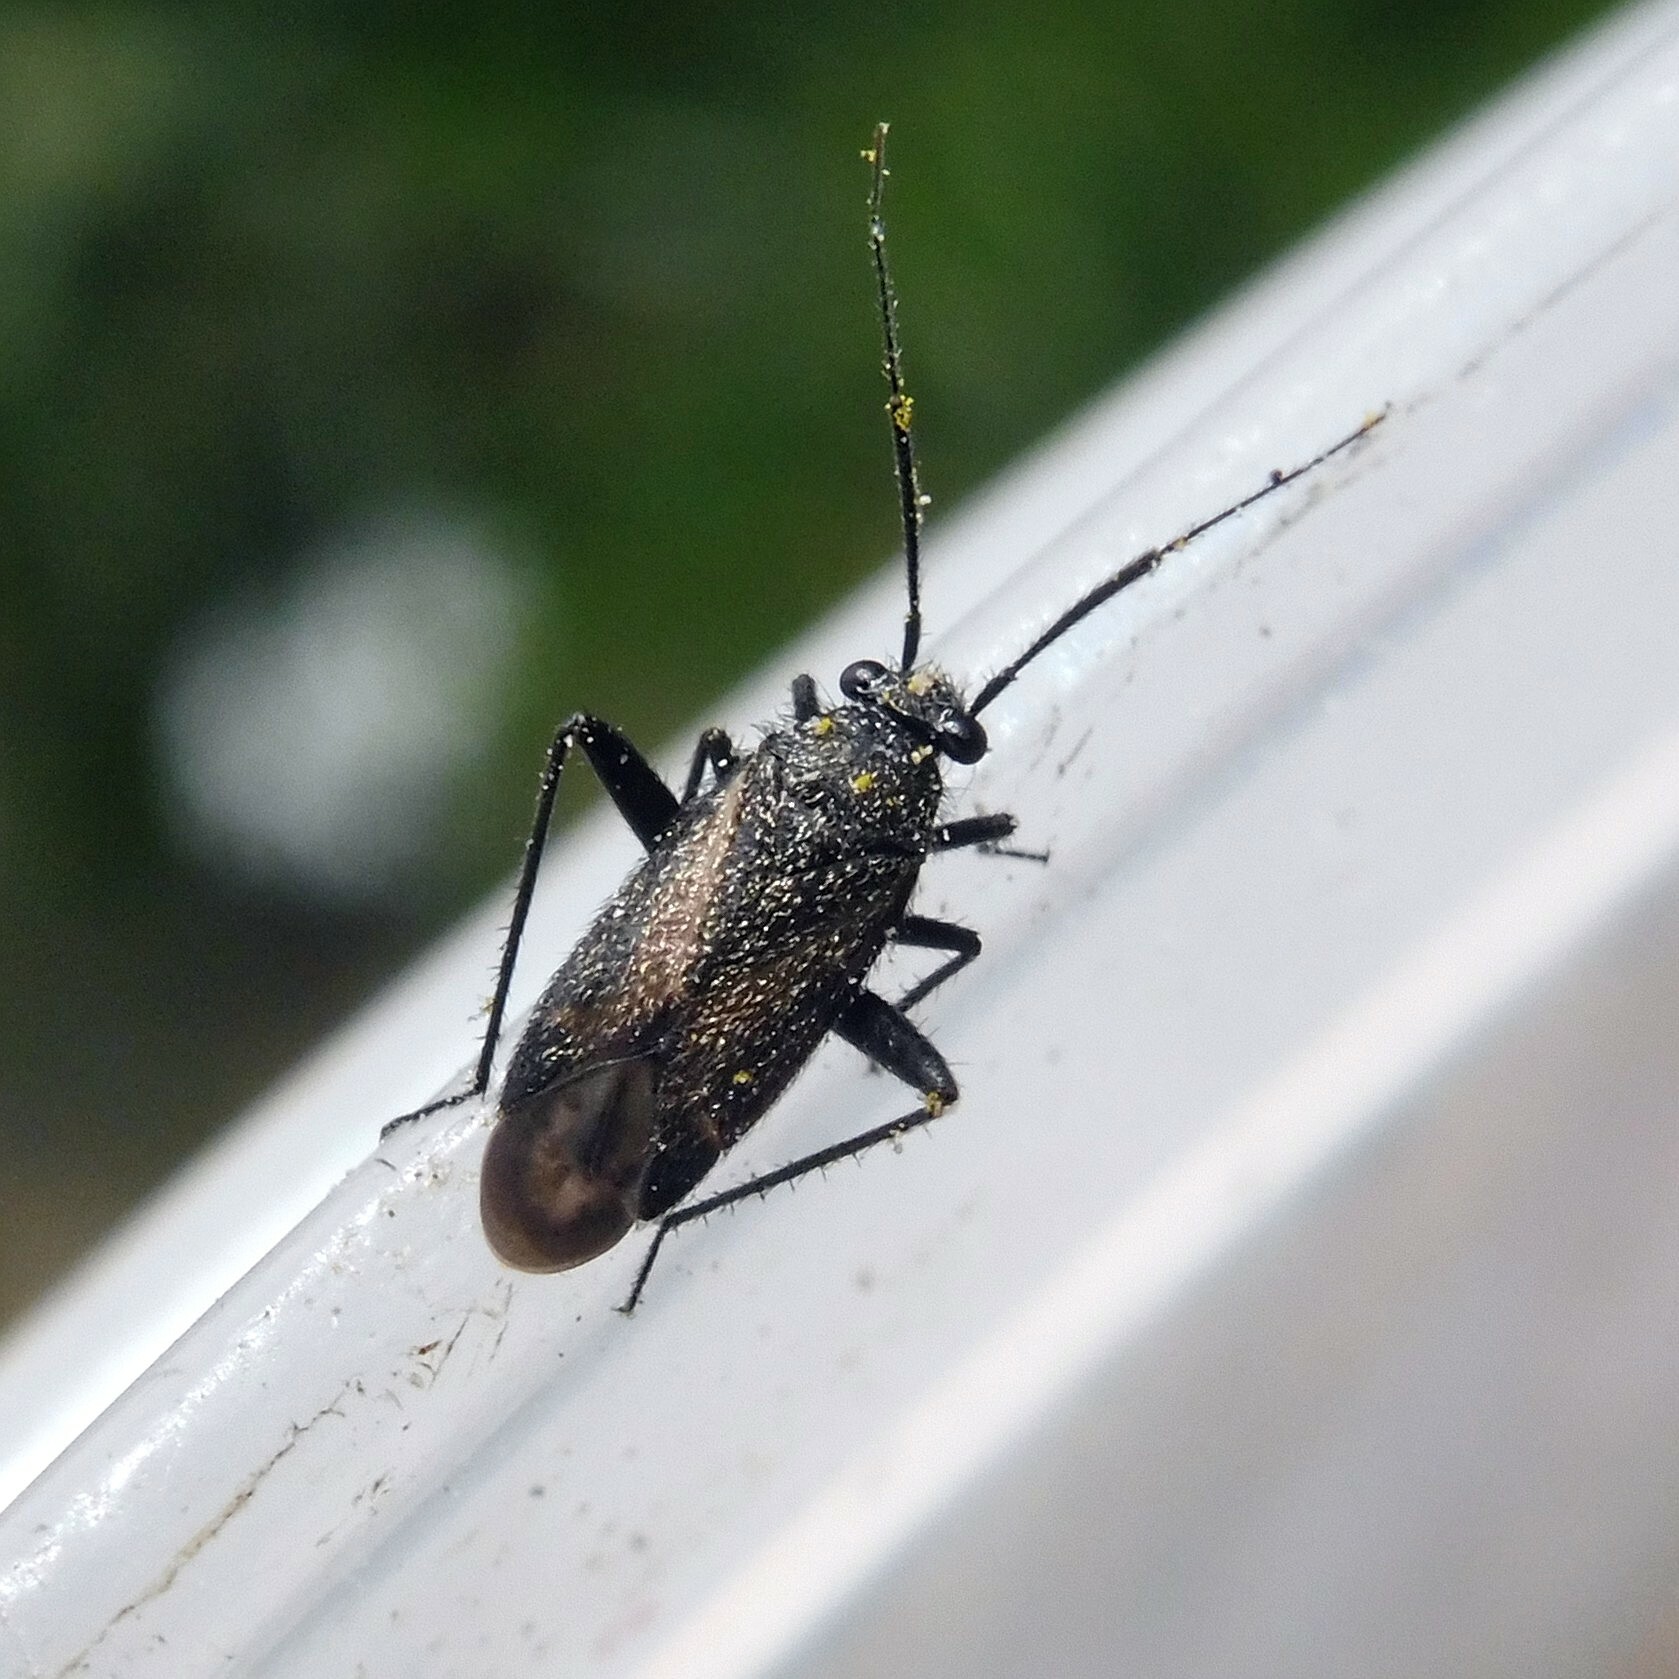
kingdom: Animalia
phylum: Arthropoda
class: Insecta
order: Hemiptera
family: Miridae
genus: Orthocephalus
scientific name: Orthocephalus coriaceus
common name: Plant bug
